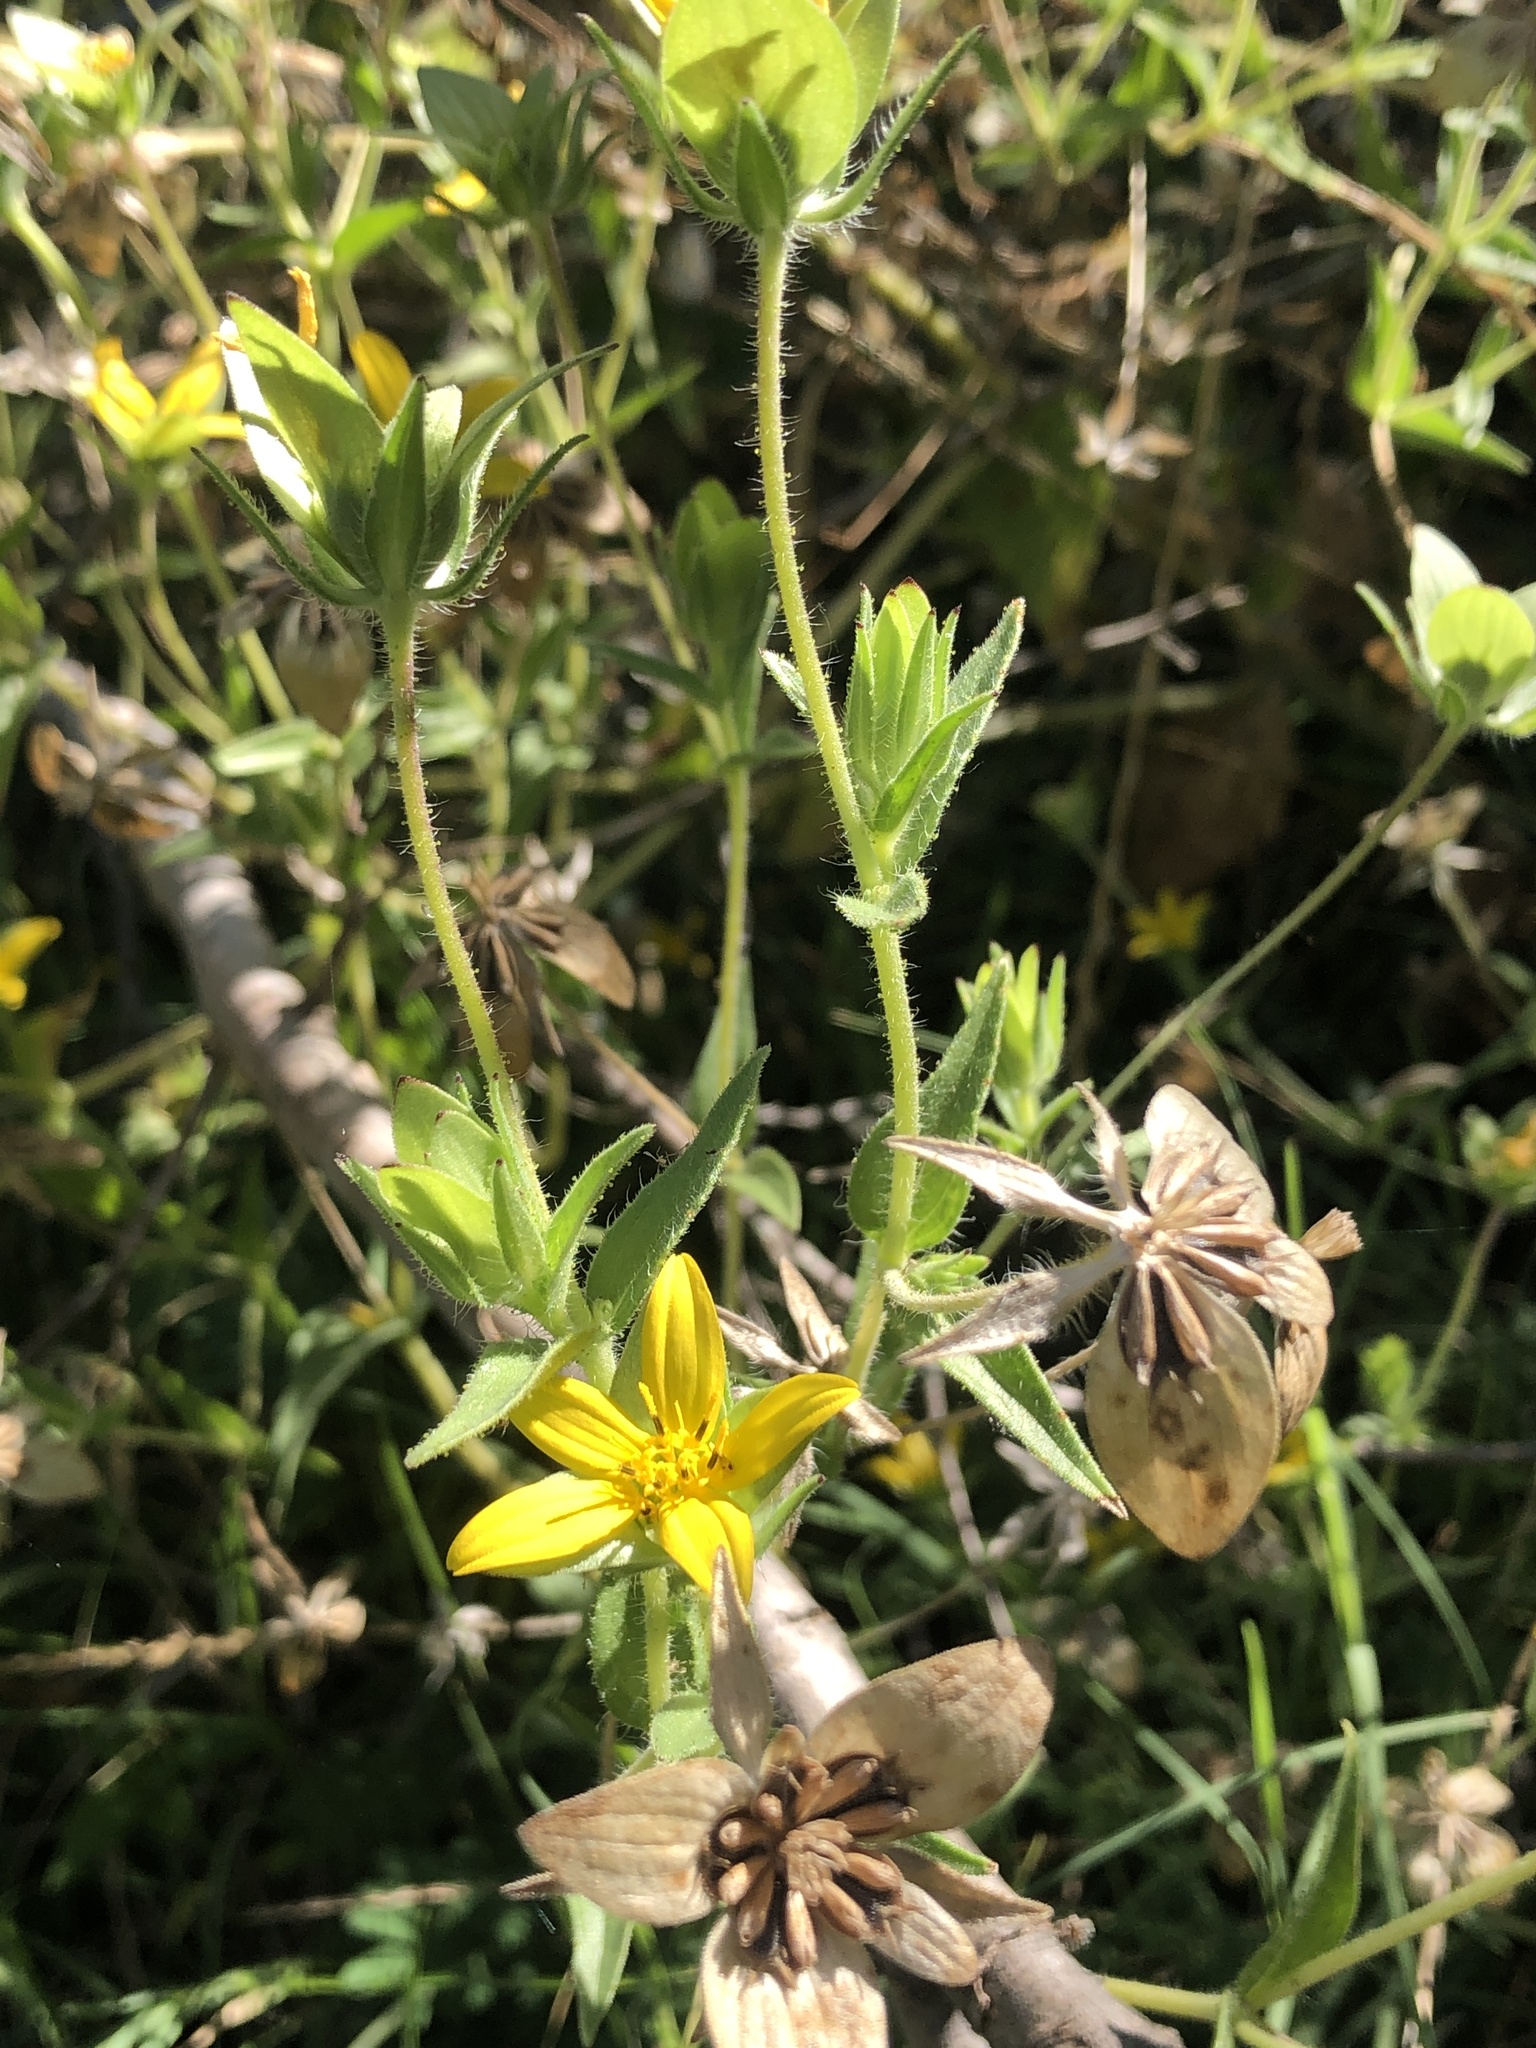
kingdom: Plantae
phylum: Tracheophyta
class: Magnoliopsida
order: Asterales
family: Asteraceae
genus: Lindheimera
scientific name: Lindheimera texana
